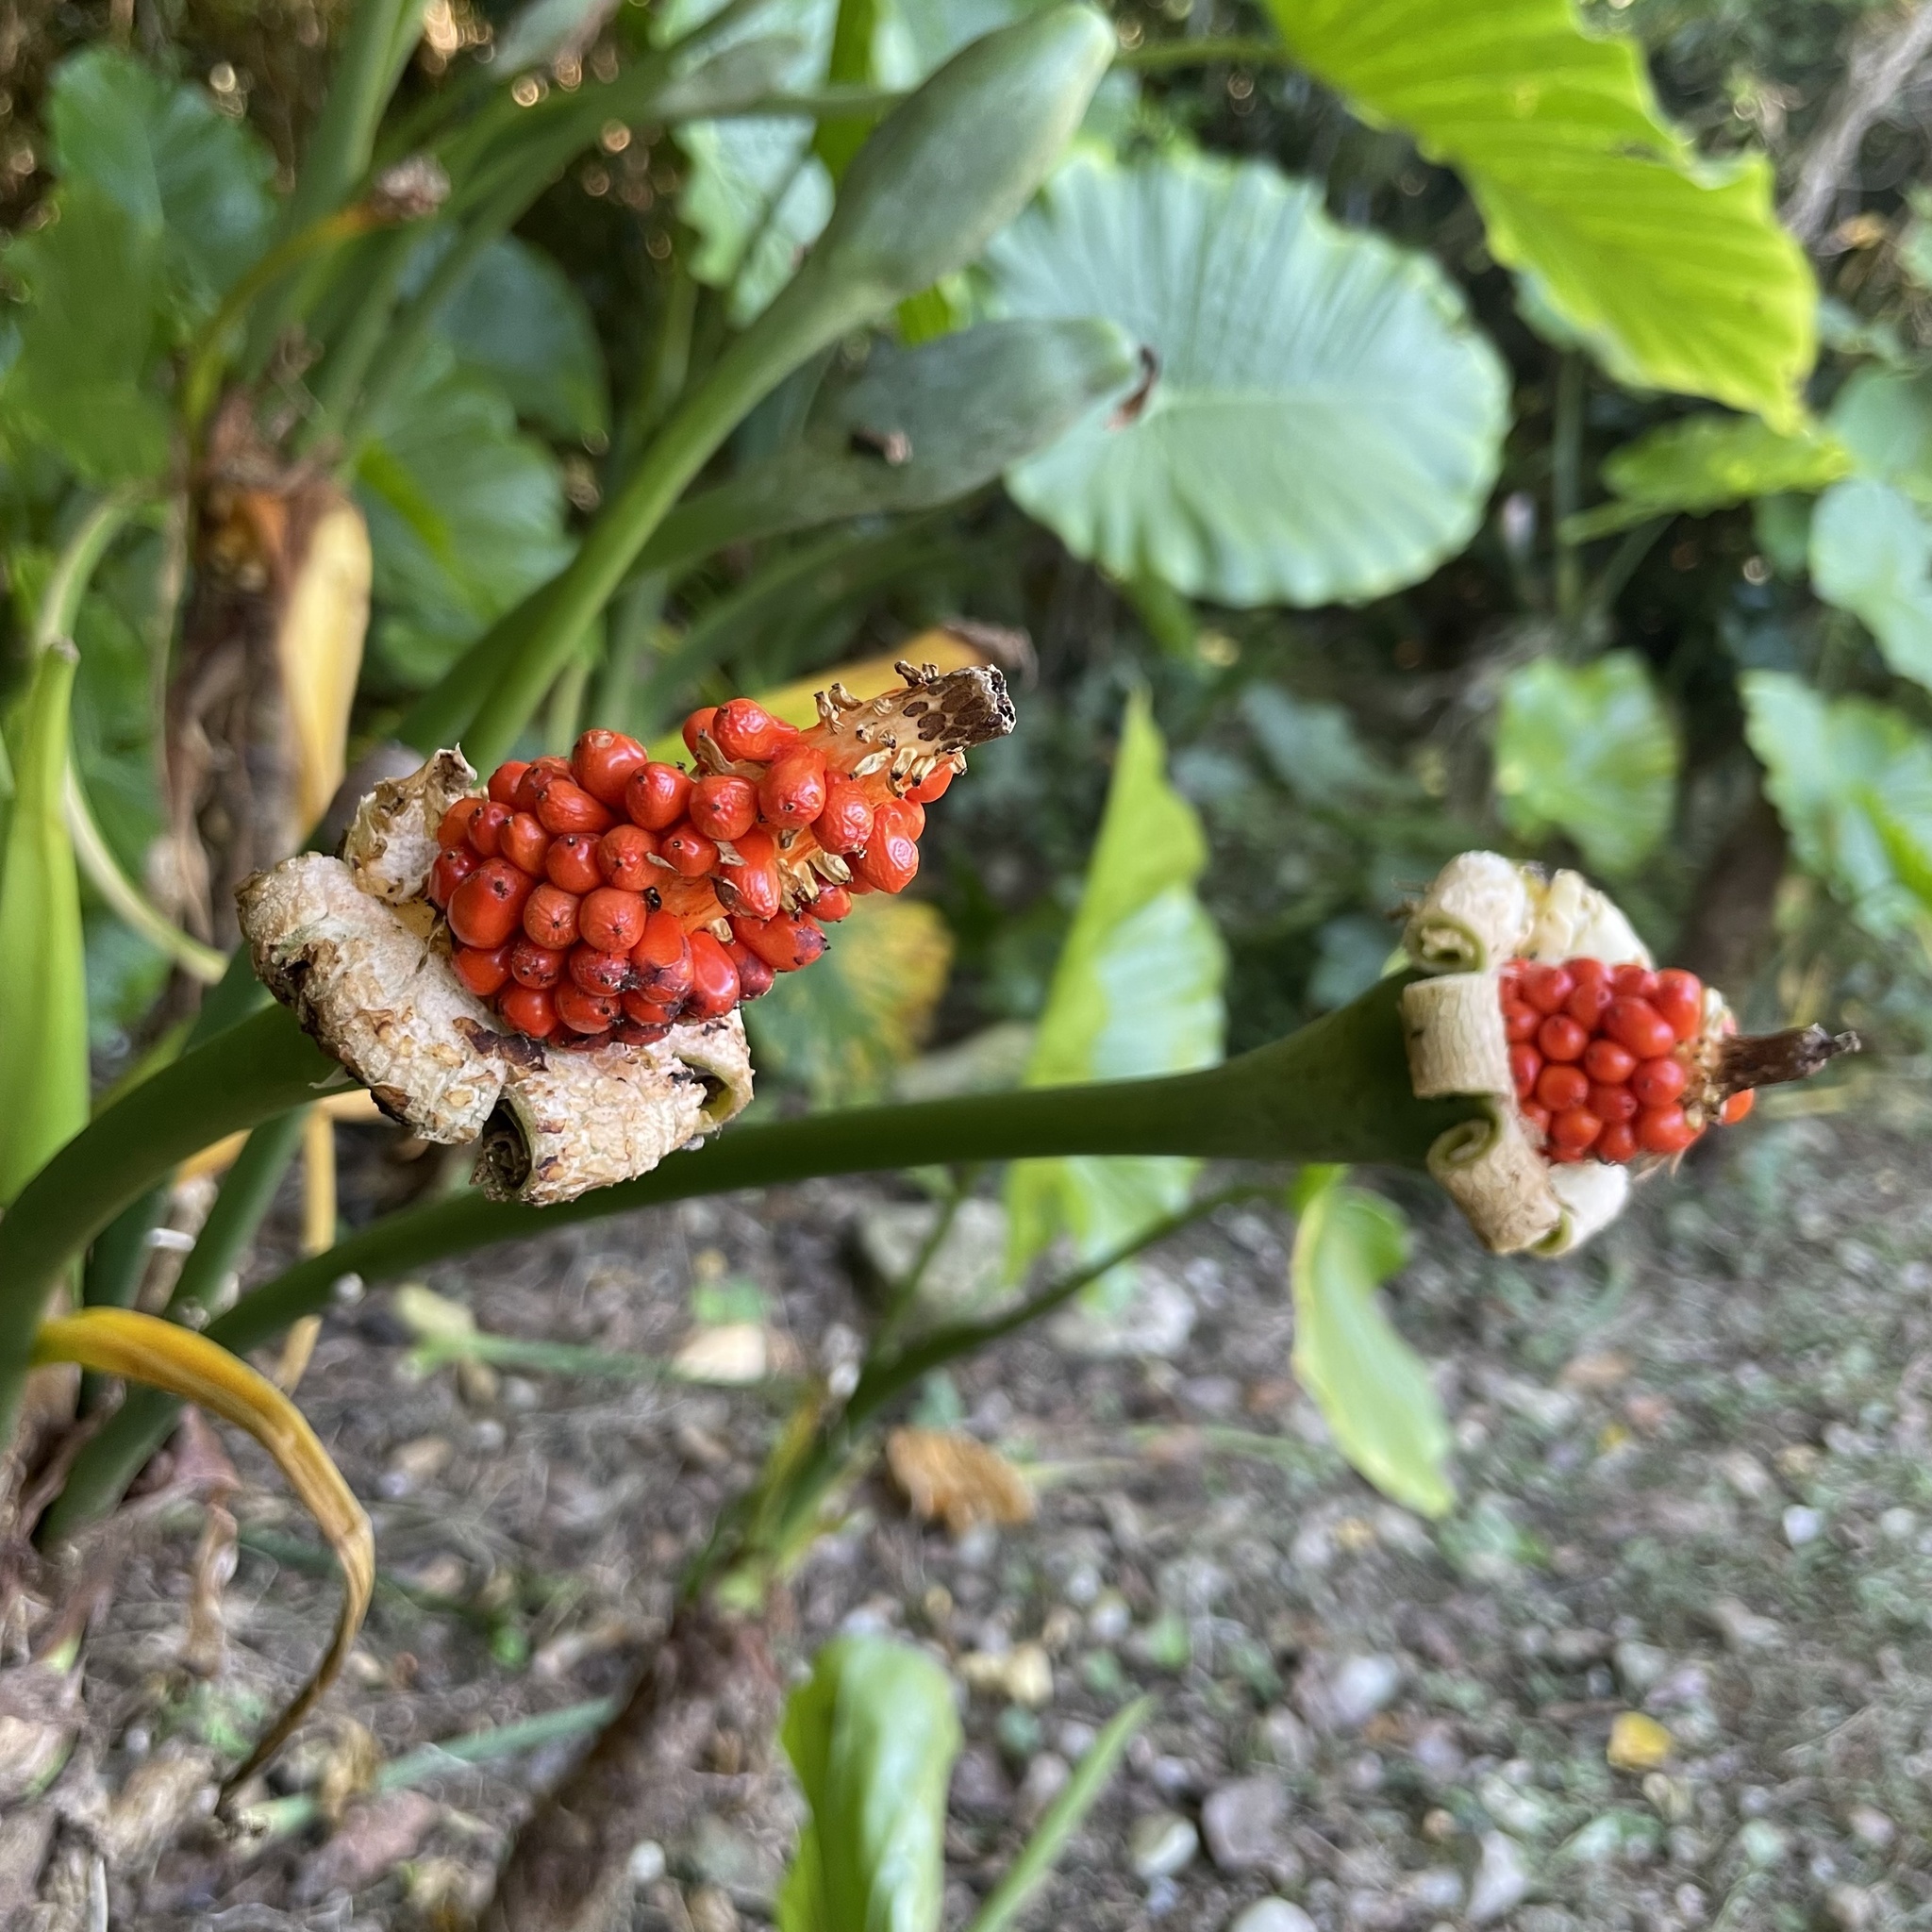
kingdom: Plantae
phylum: Tracheophyta
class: Liliopsida
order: Alismatales
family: Araceae
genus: Alocasia
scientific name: Alocasia odora
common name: Asian taro
